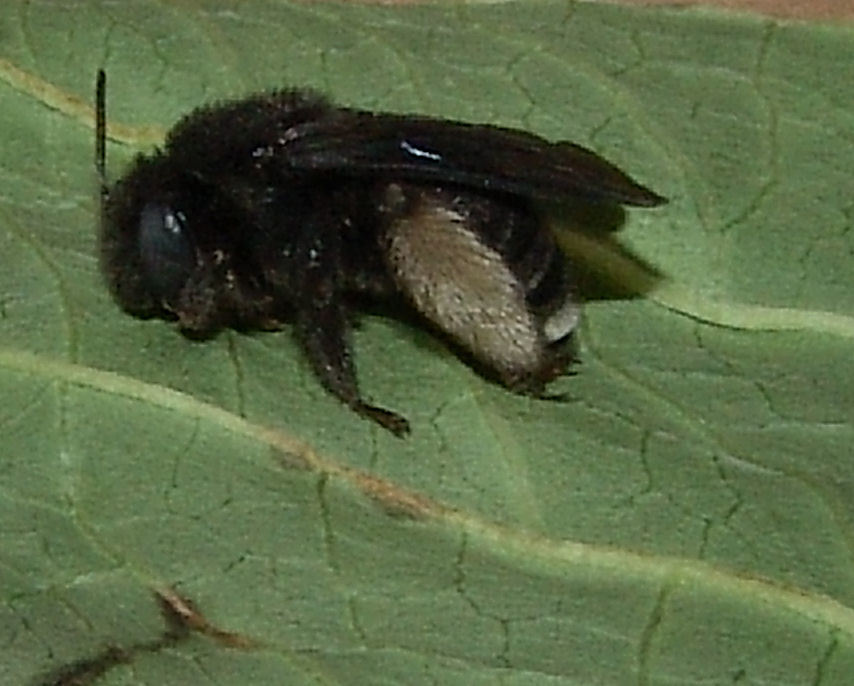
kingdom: Animalia
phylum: Arthropoda
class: Insecta
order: Hymenoptera
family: Apidae
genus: Melissodes
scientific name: Melissodes bimaculatus
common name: Two-spotted long-horned bee
